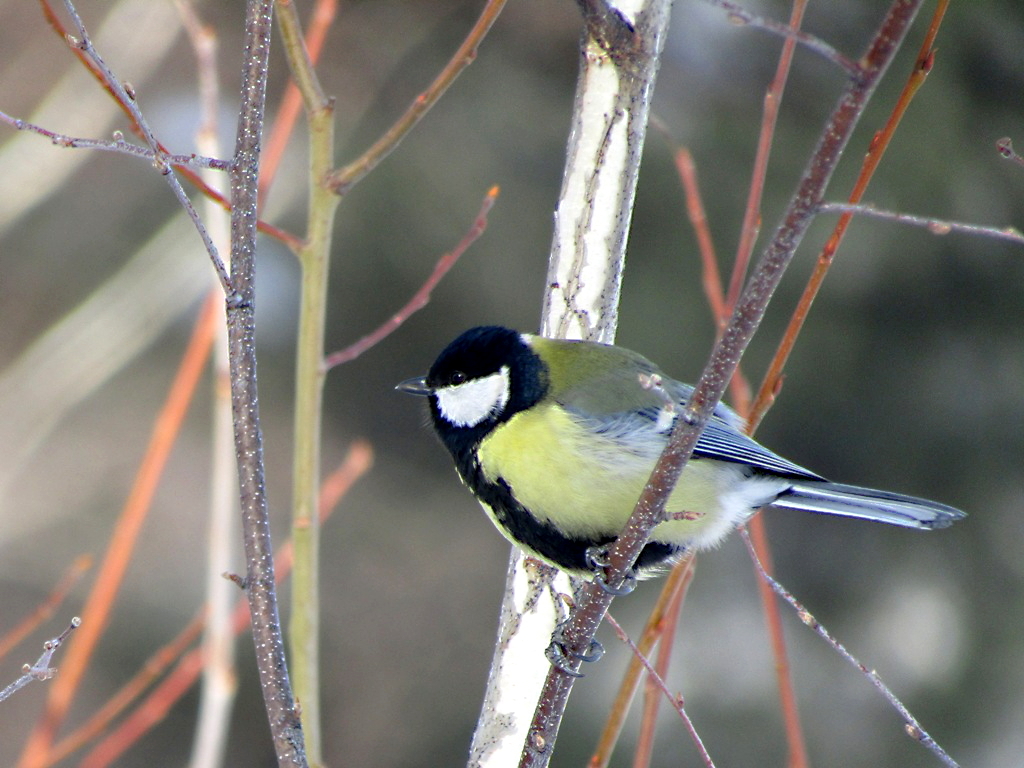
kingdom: Animalia
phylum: Chordata
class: Aves
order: Passeriformes
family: Paridae
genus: Parus
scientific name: Parus major
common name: Great tit
